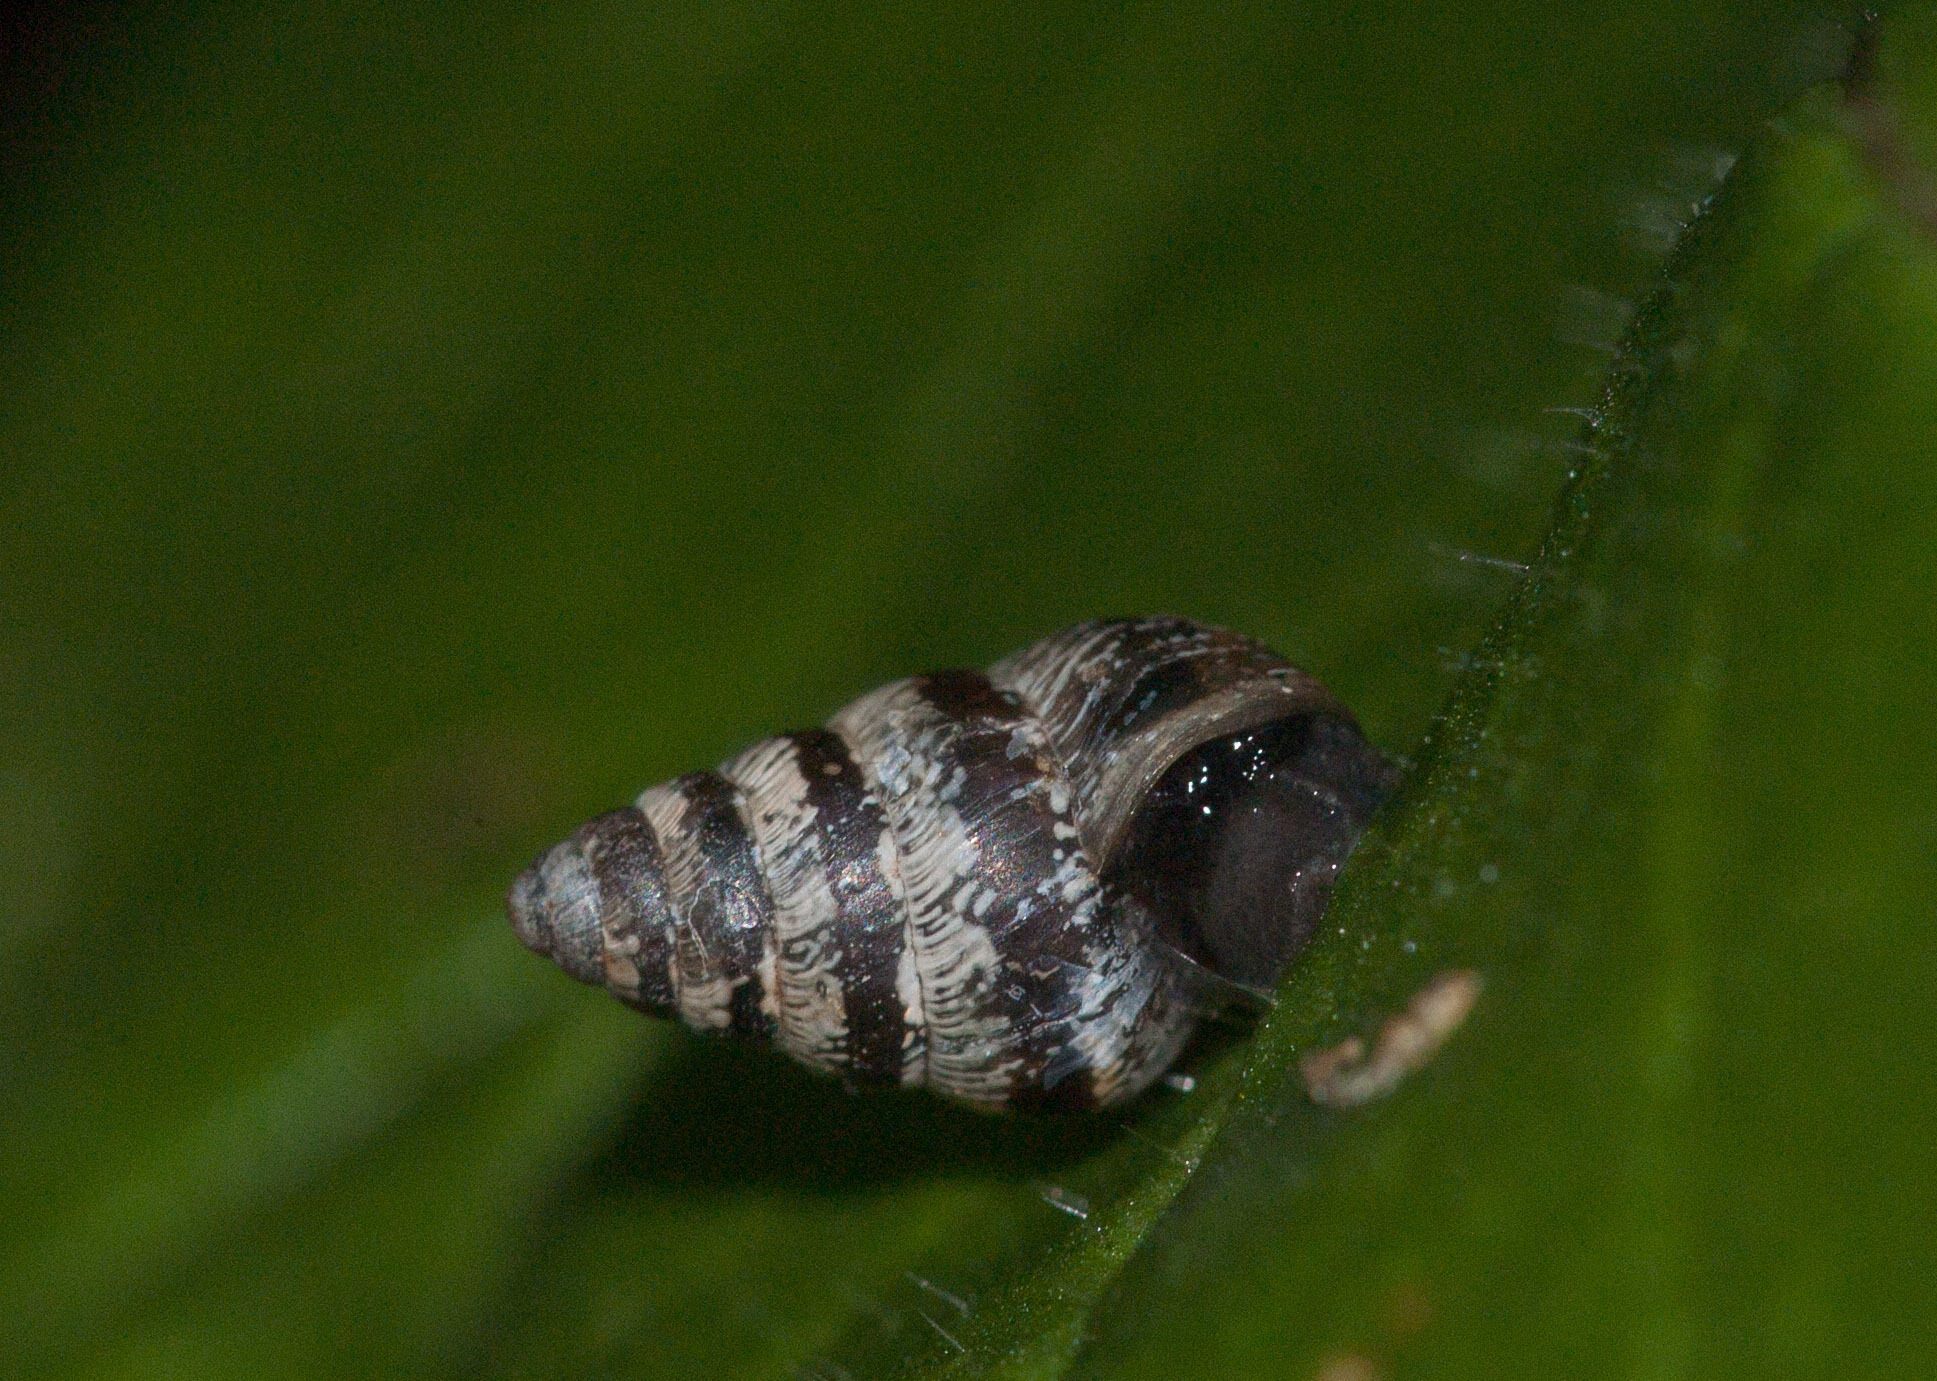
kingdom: Animalia
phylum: Mollusca
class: Gastropoda
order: Stylommatophora
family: Geomitridae
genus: Cochlicella
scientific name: Cochlicella barbara
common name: Potbellied helicellid
